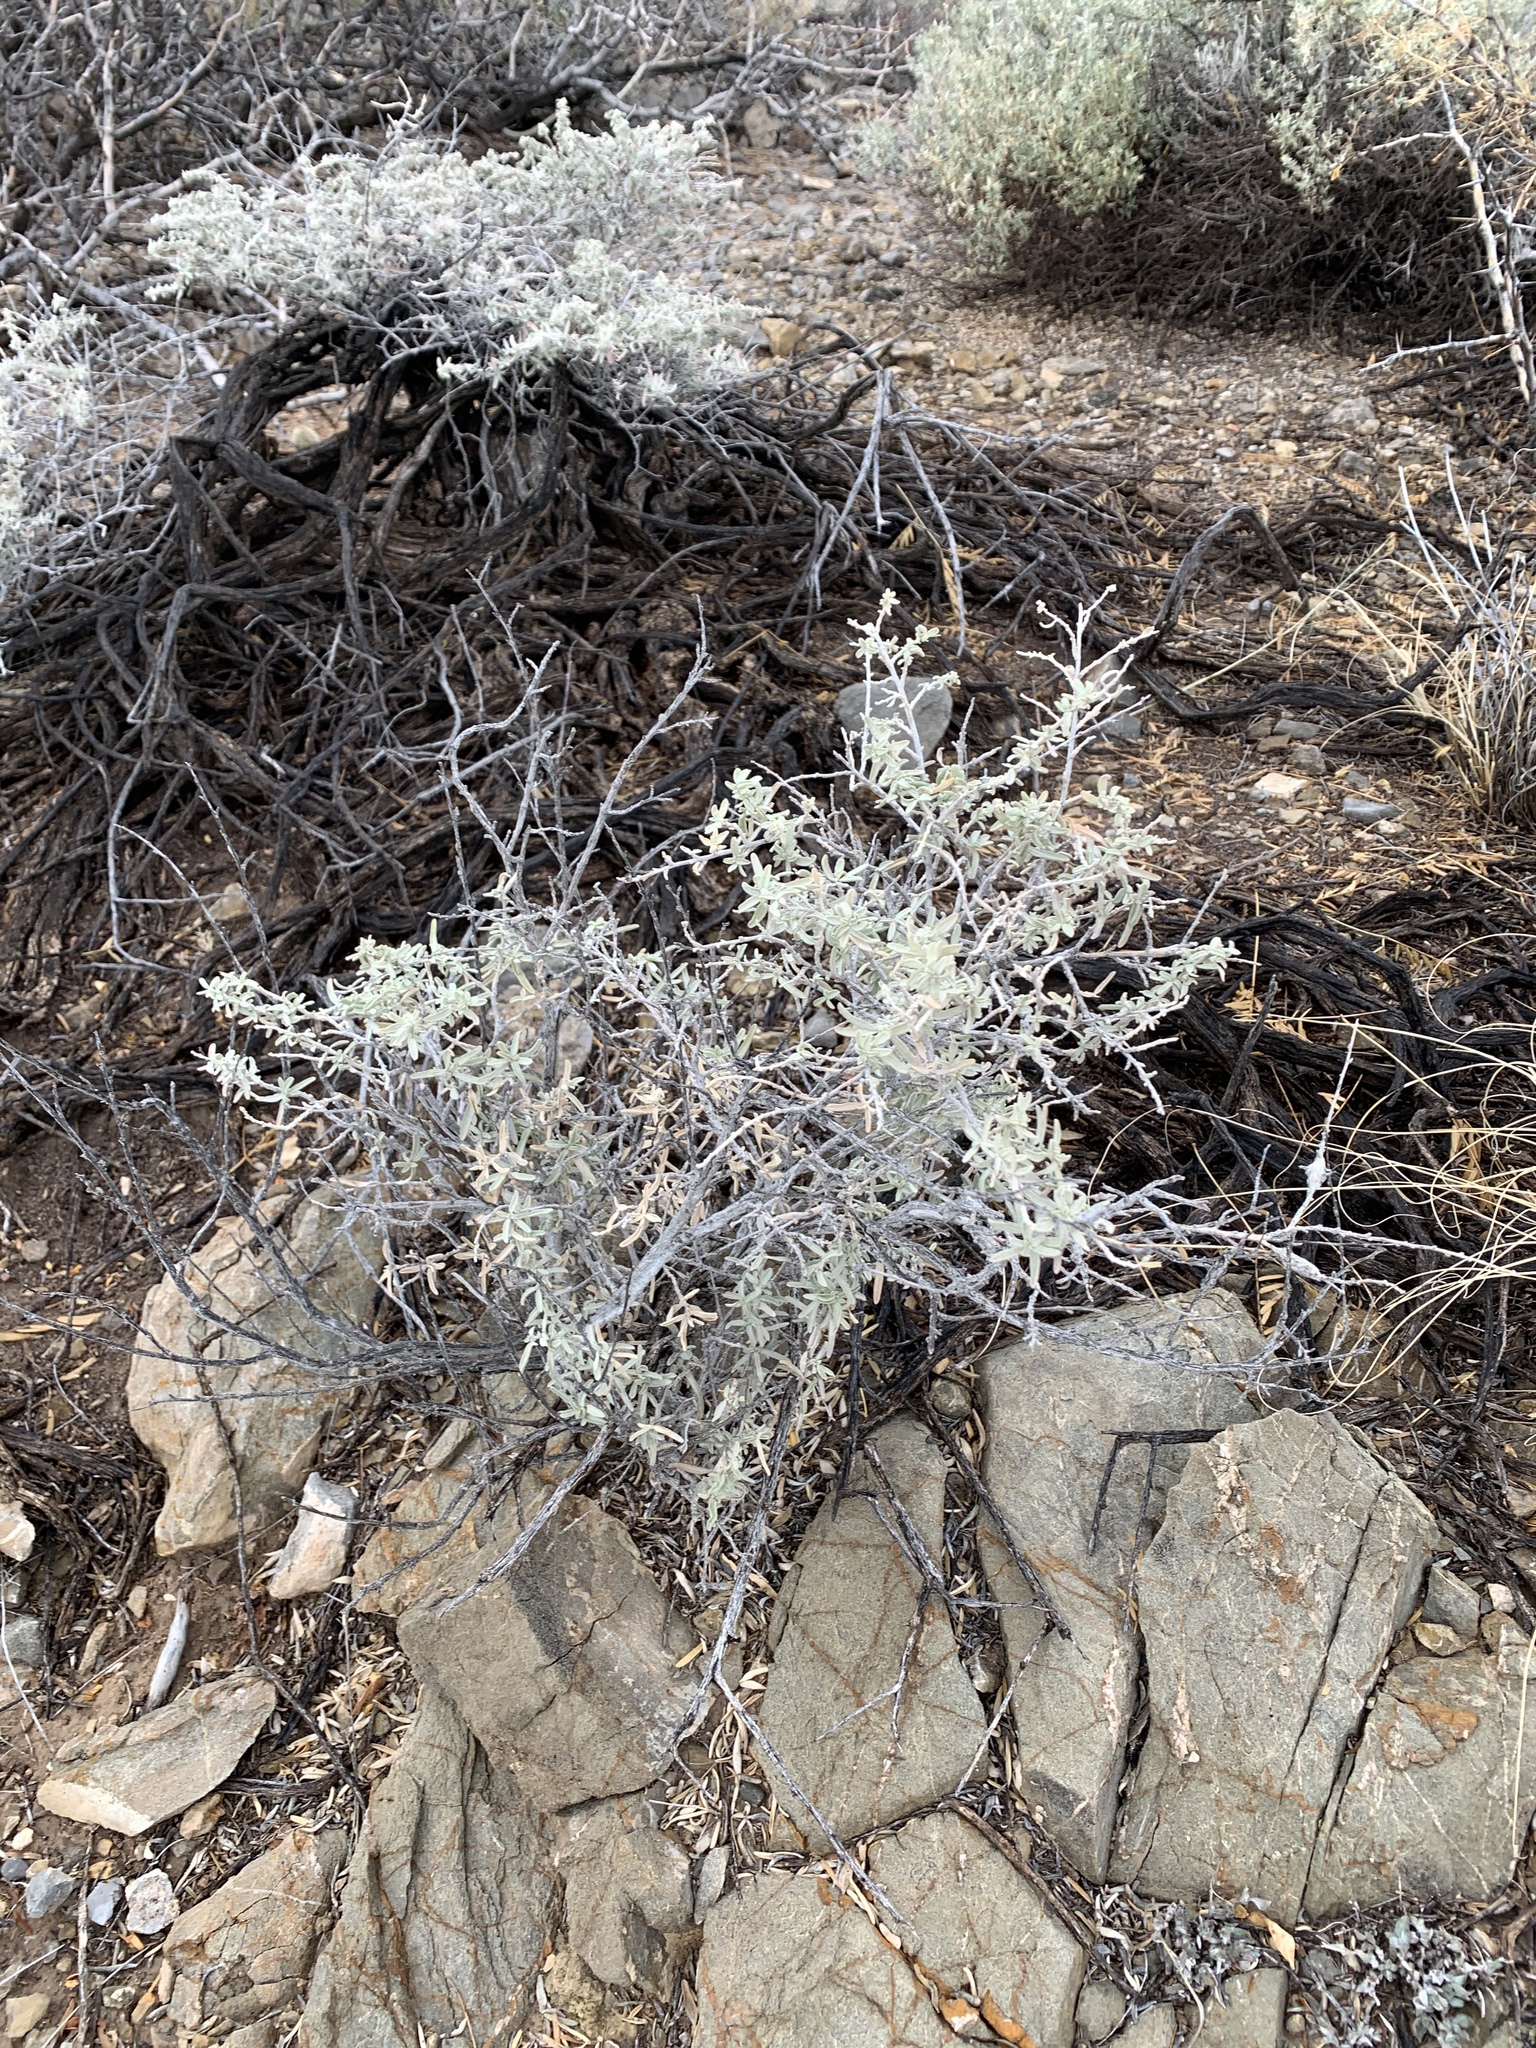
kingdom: Plantae
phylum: Tracheophyta
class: Magnoliopsida
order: Caryophyllales
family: Amaranthaceae
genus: Atriplex
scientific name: Atriplex canescens
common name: Four-wing saltbush
